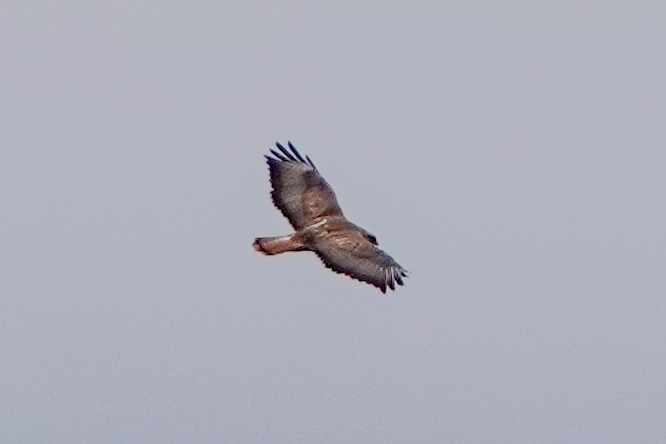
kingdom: Animalia
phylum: Chordata
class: Aves
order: Accipitriformes
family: Accipitridae
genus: Buteo
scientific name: Buteo buteo
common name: Common buzzard
